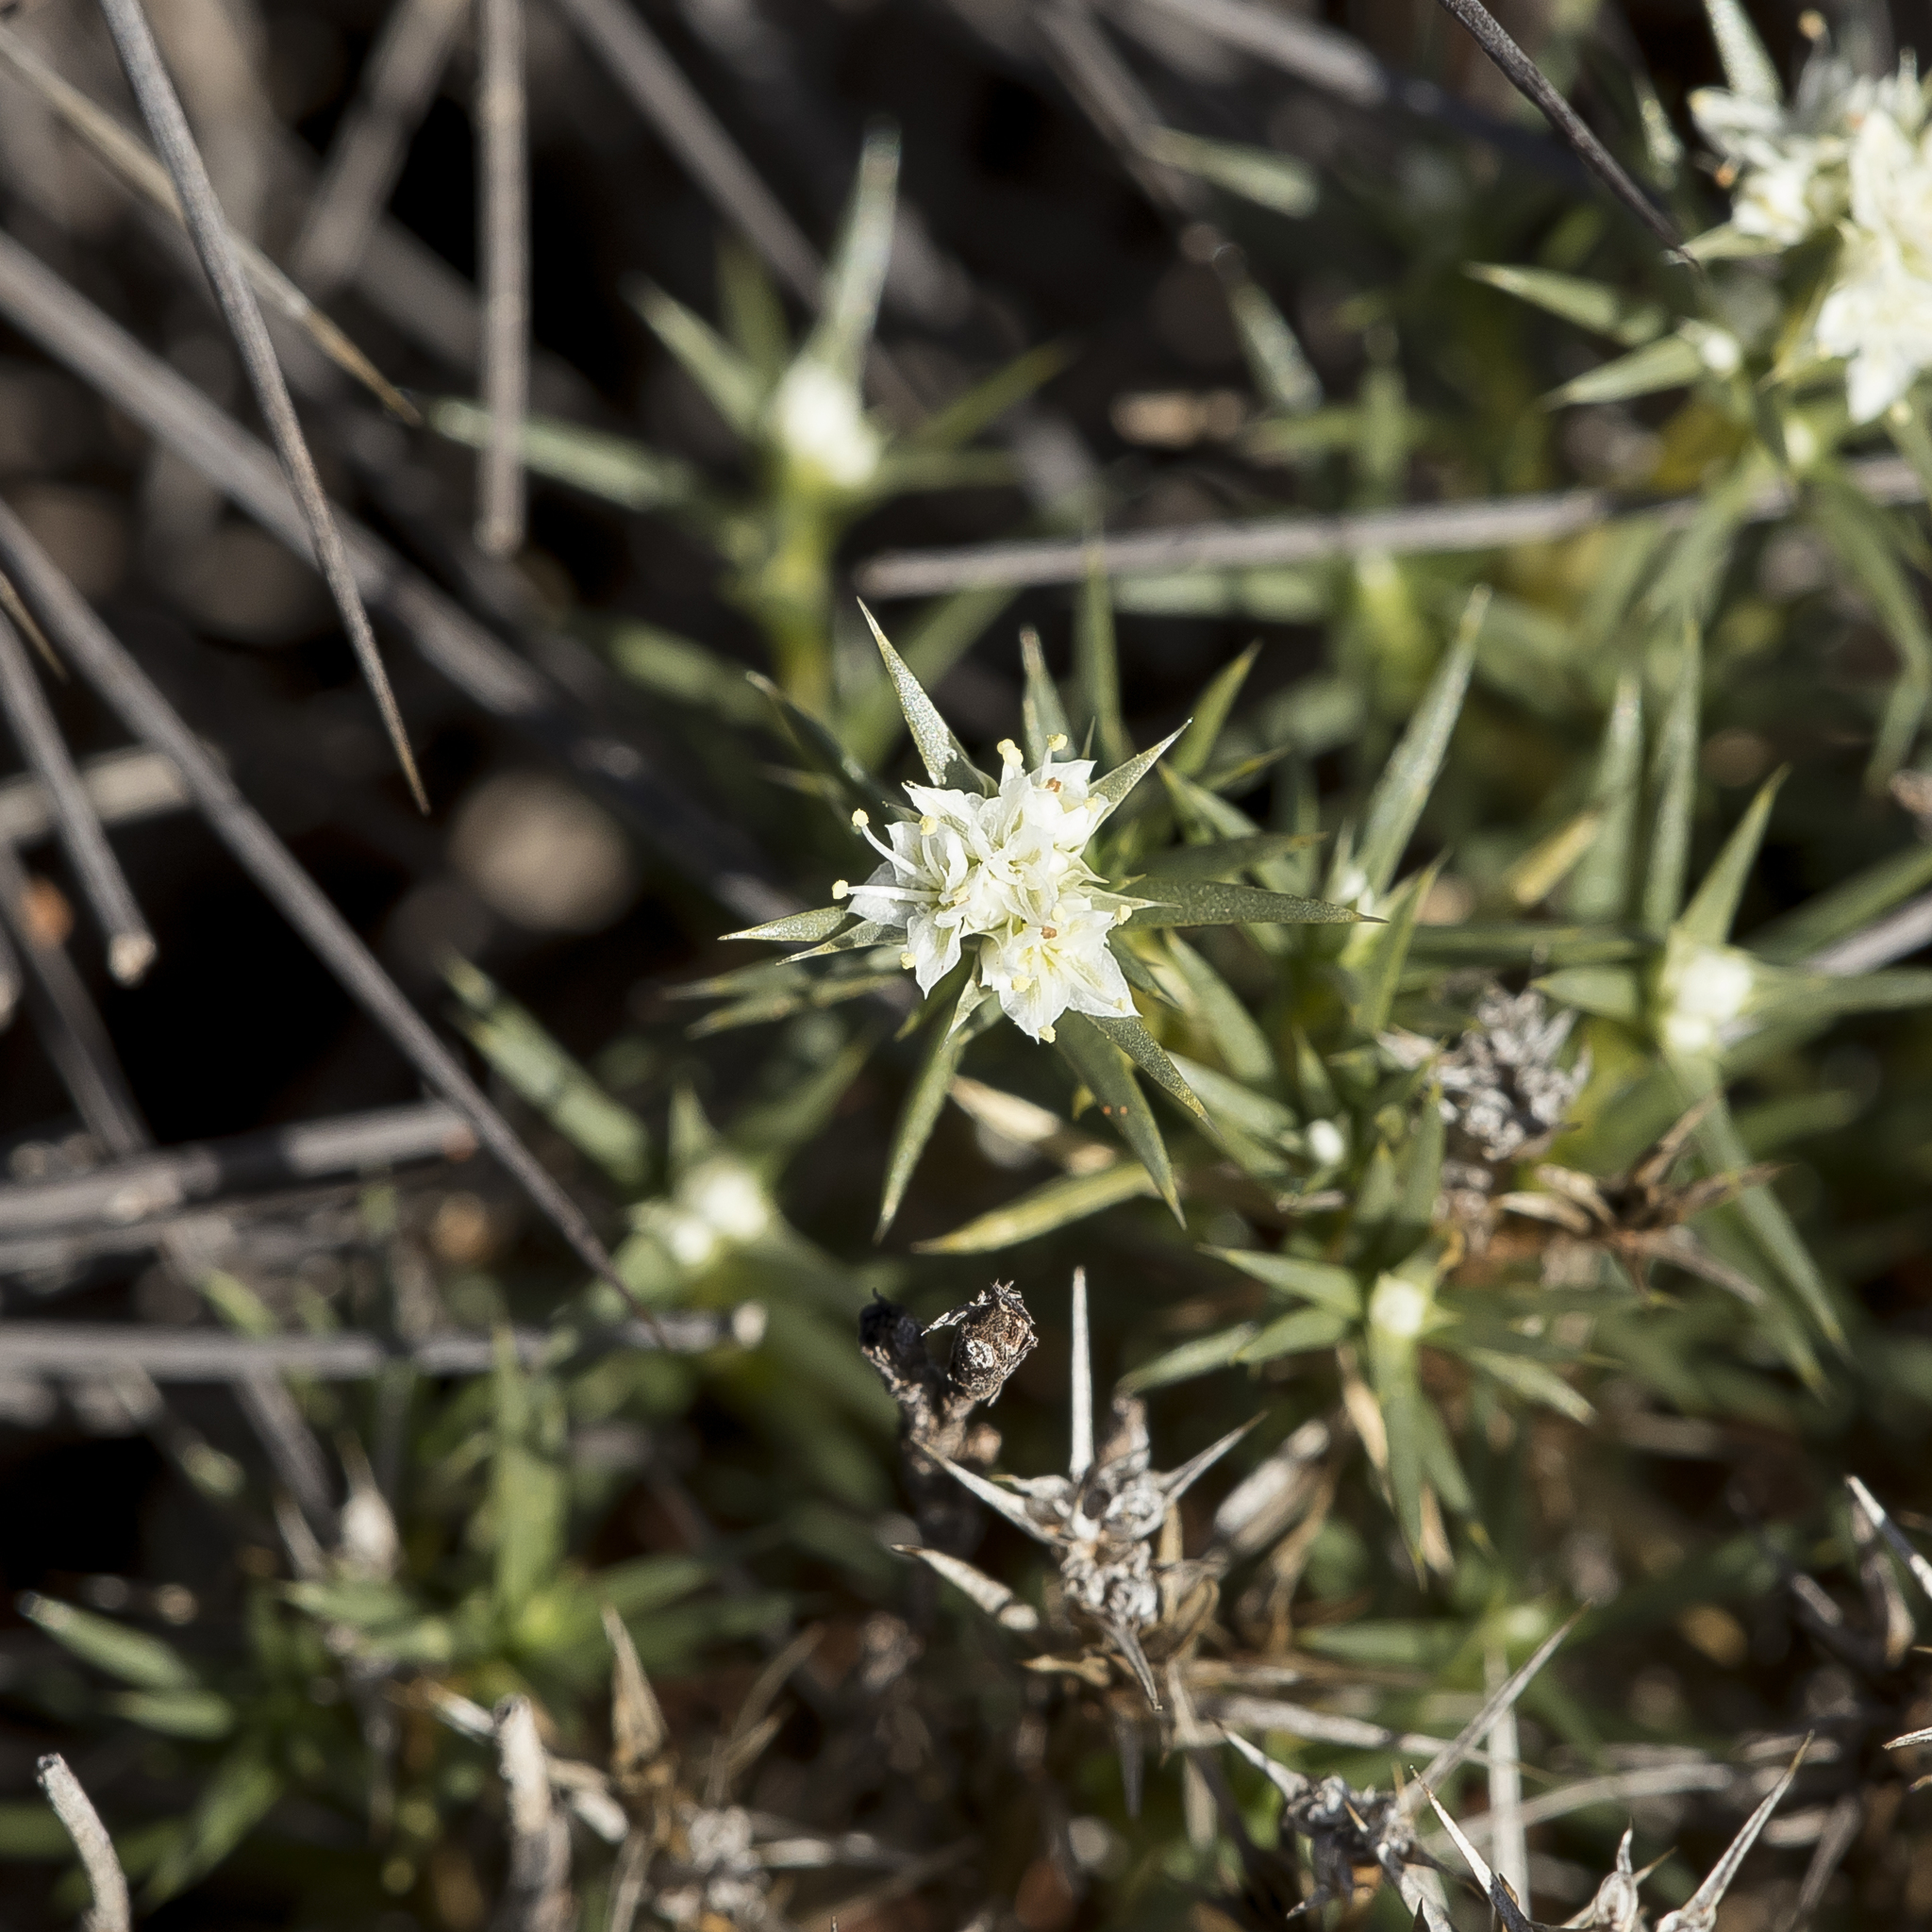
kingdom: Plantae
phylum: Tracheophyta
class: Magnoliopsida
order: Caryophyllales
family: Caryophyllaceae
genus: Scleranthus
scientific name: Scleranthus pungens
